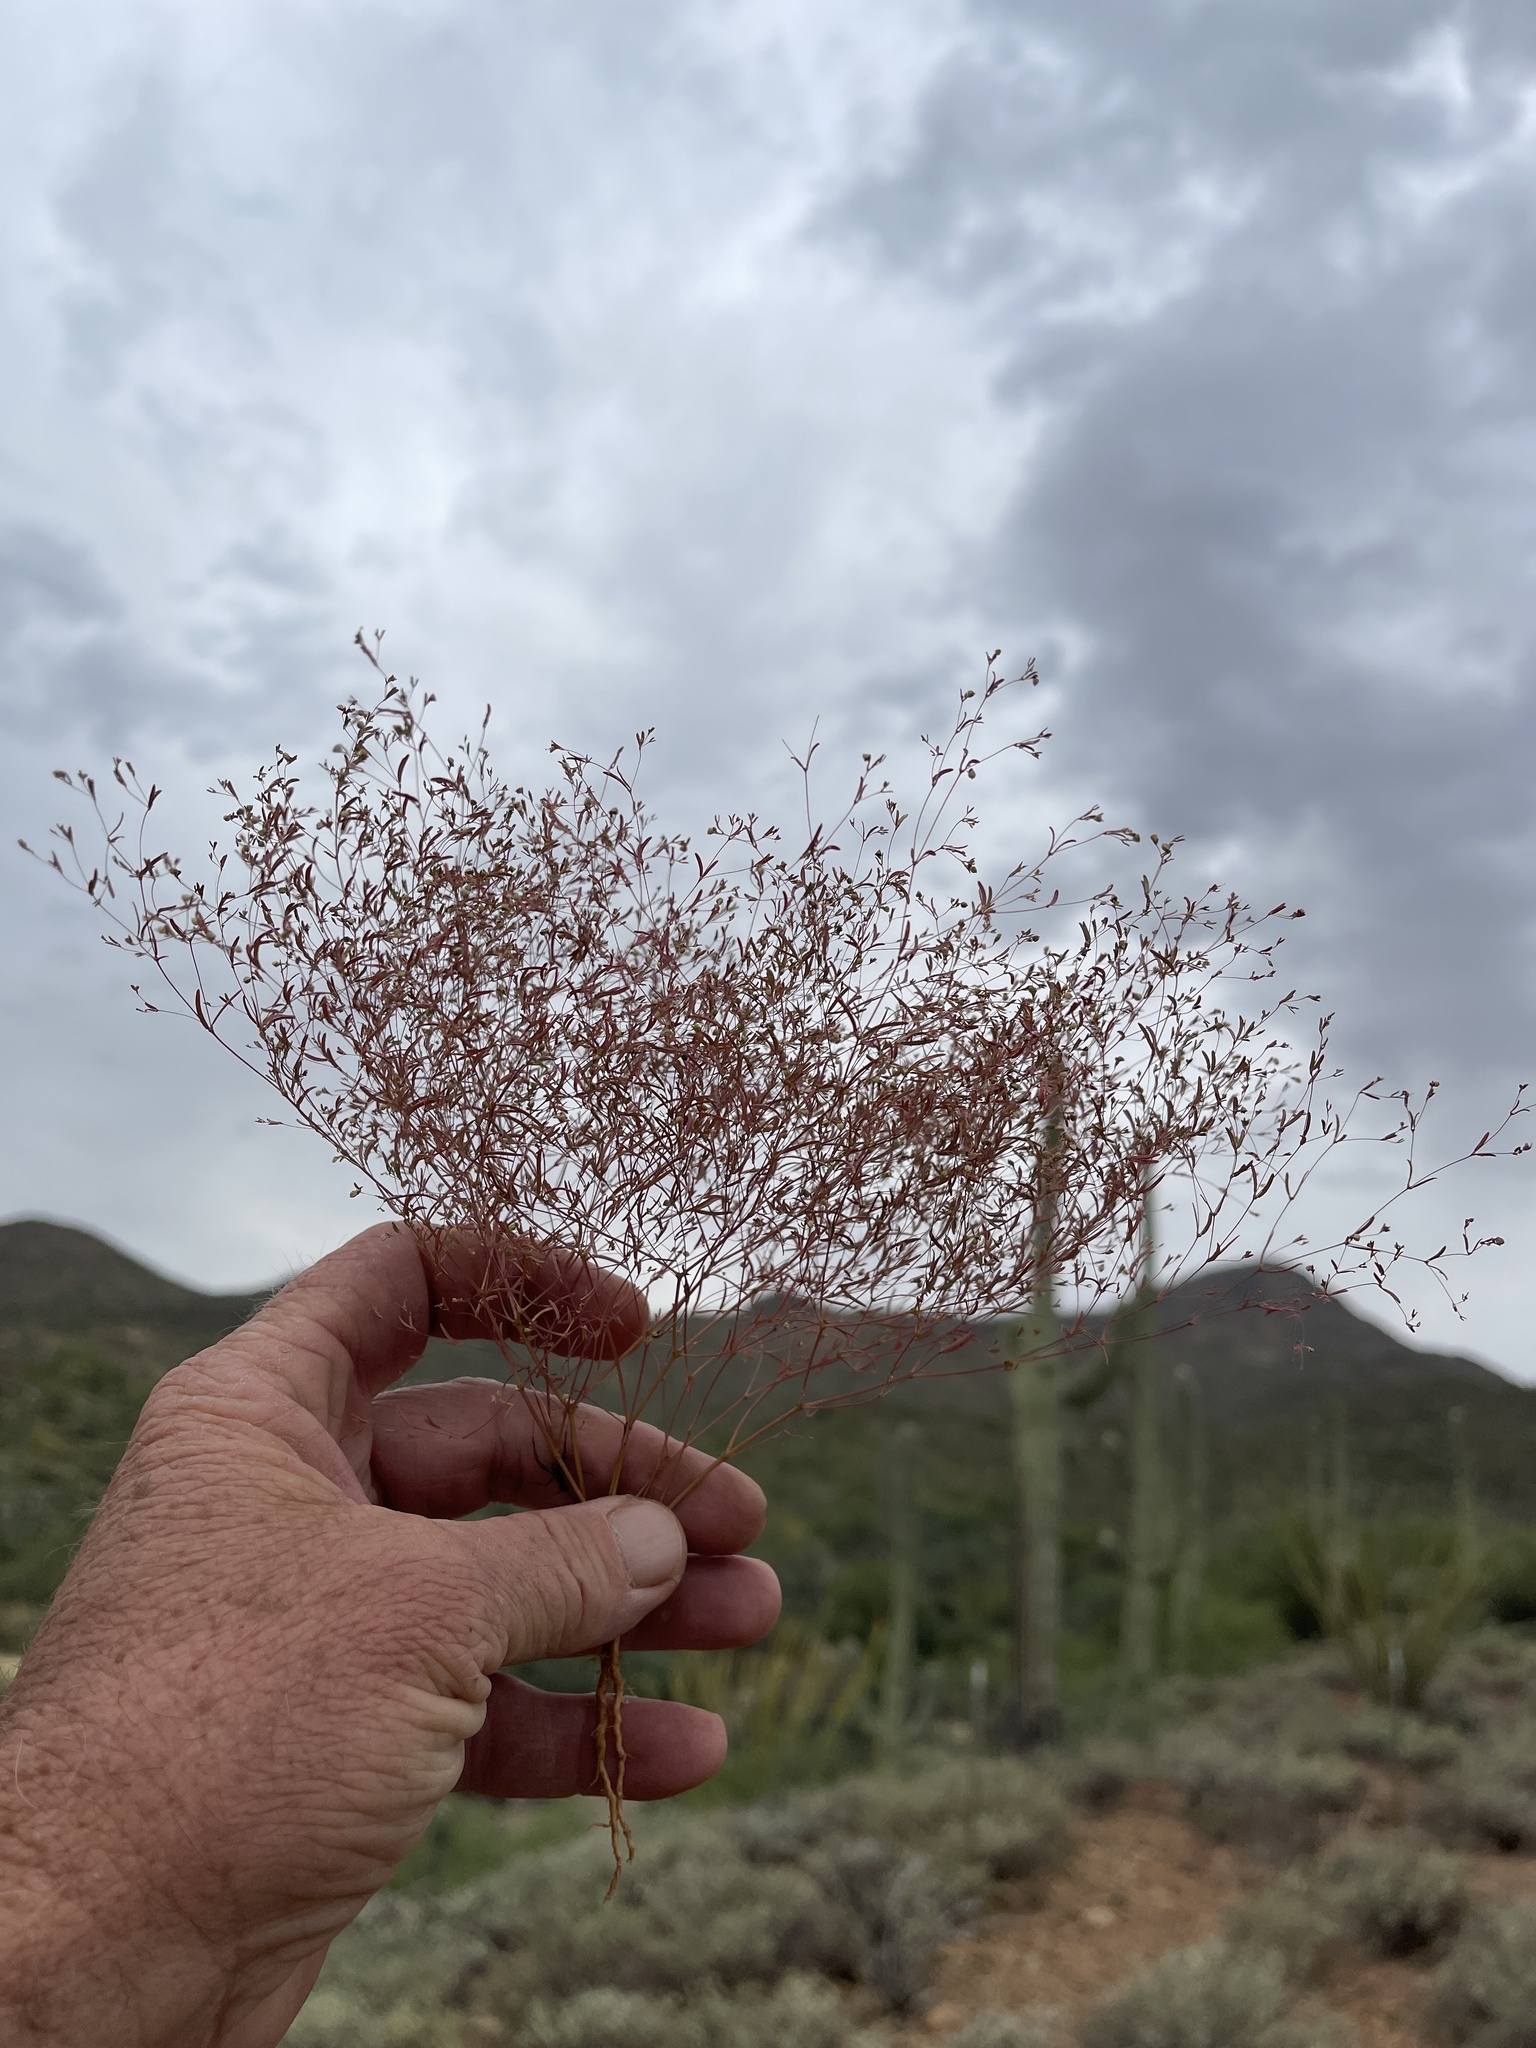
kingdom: Plantae
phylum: Tracheophyta
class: Magnoliopsida
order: Malpighiales
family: Euphorbiaceae
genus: Euphorbia
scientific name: Euphorbia gracillima
